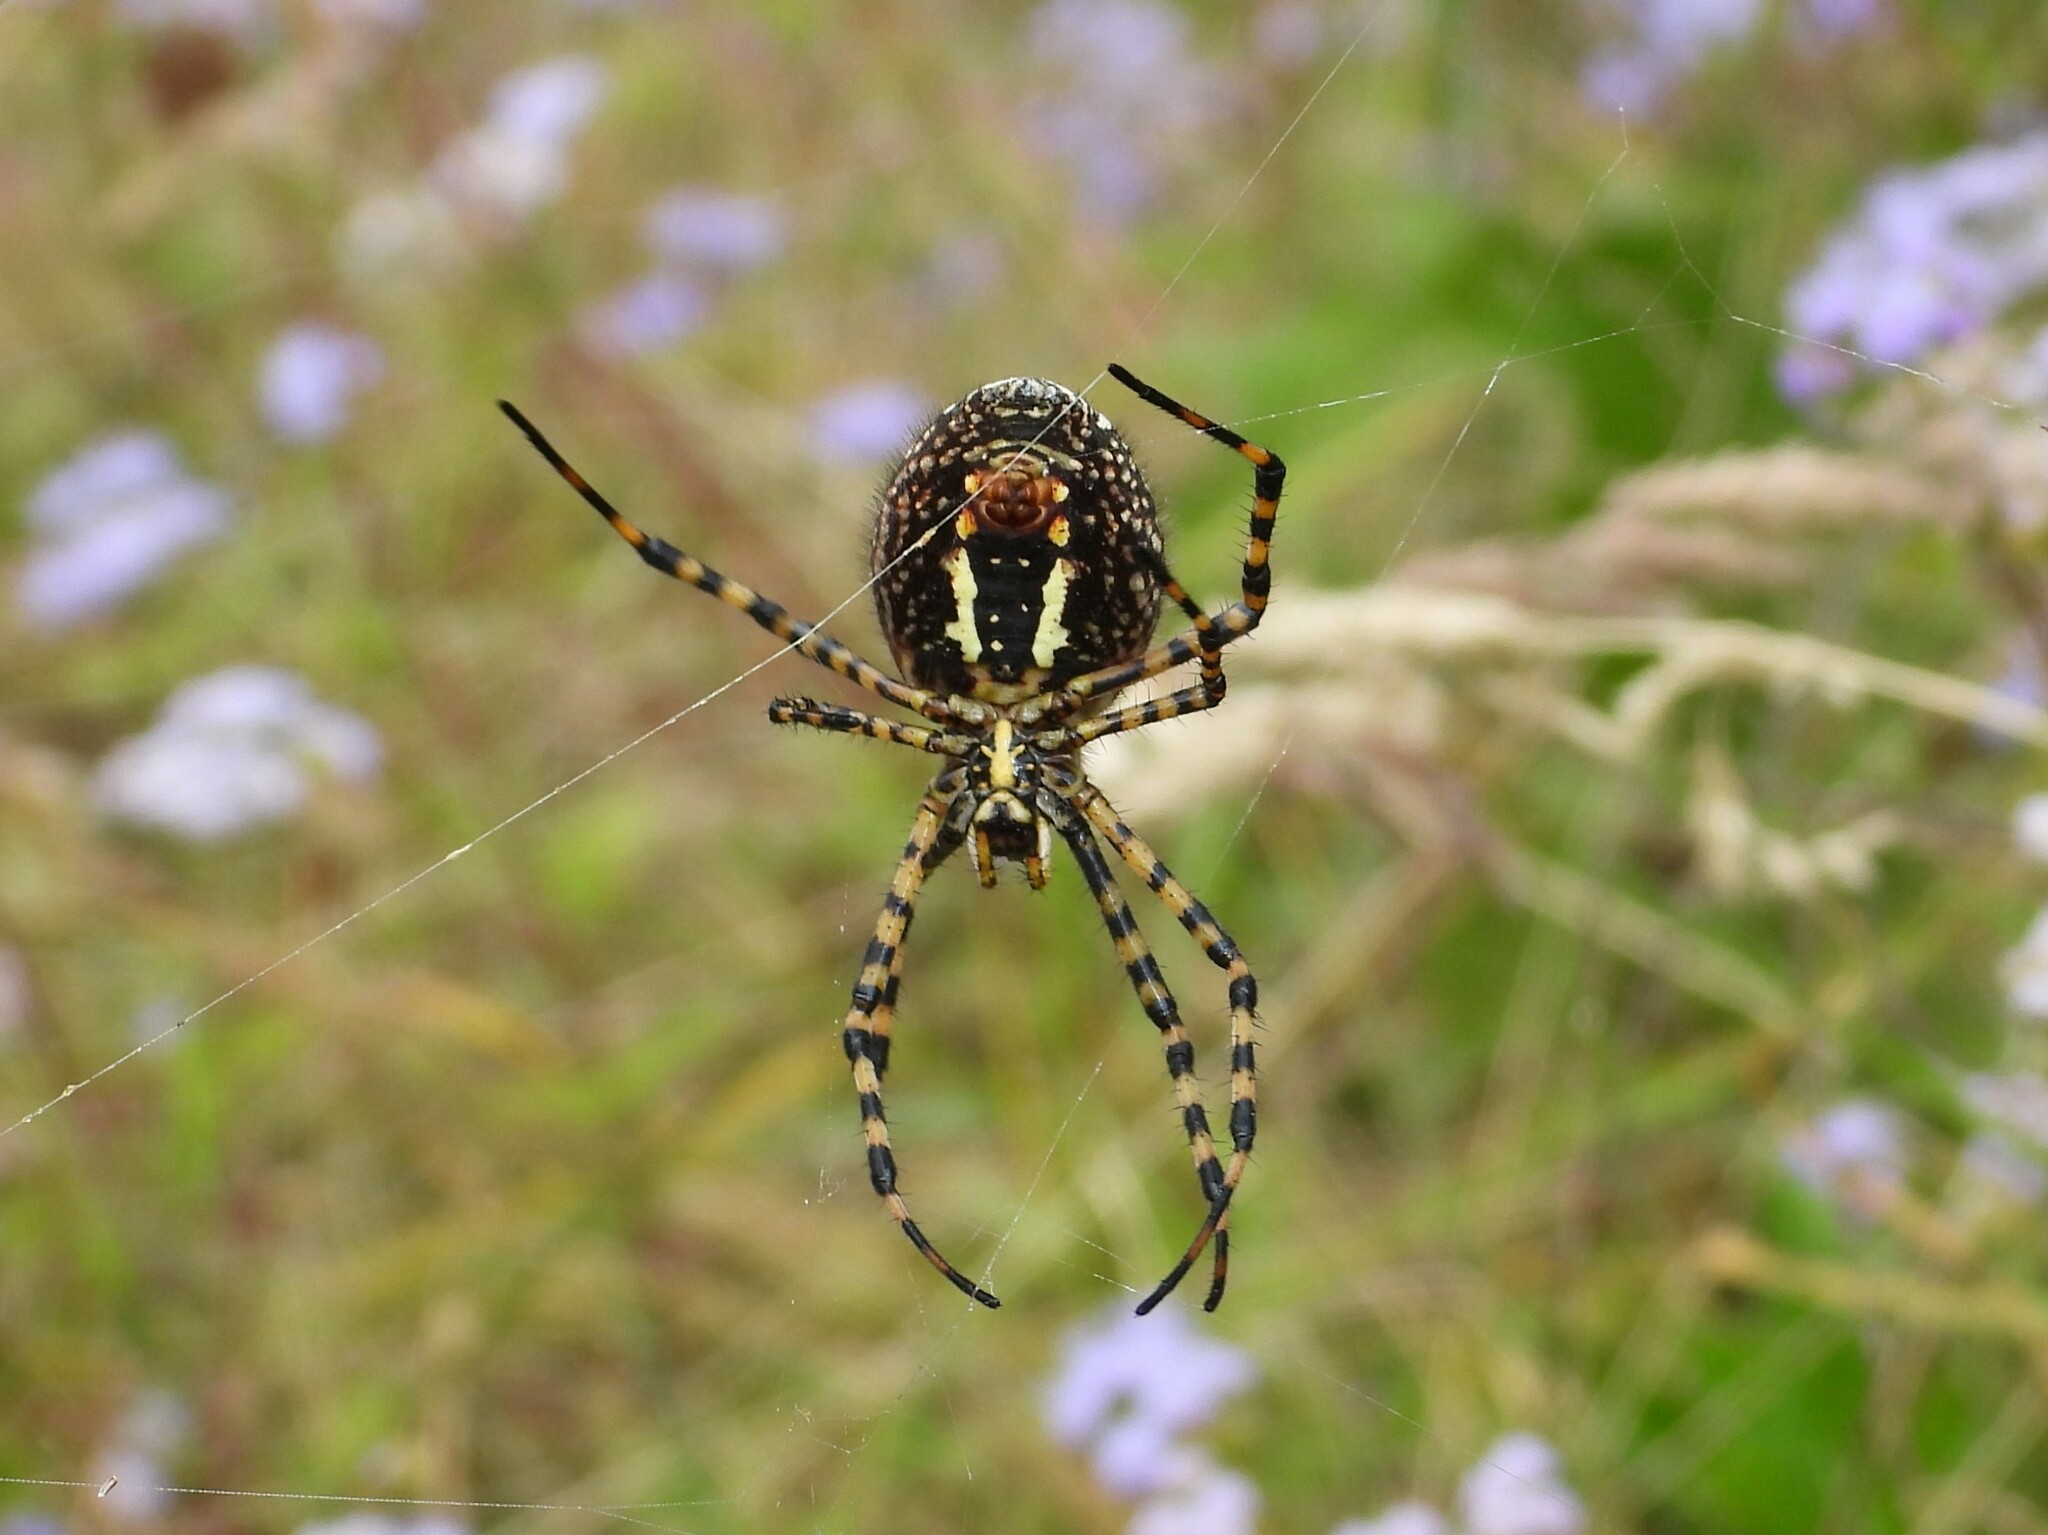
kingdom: Animalia
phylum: Arthropoda
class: Arachnida
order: Araneae
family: Araneidae
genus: Argiope
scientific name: Argiope trifasciata
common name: Banded garden spider
